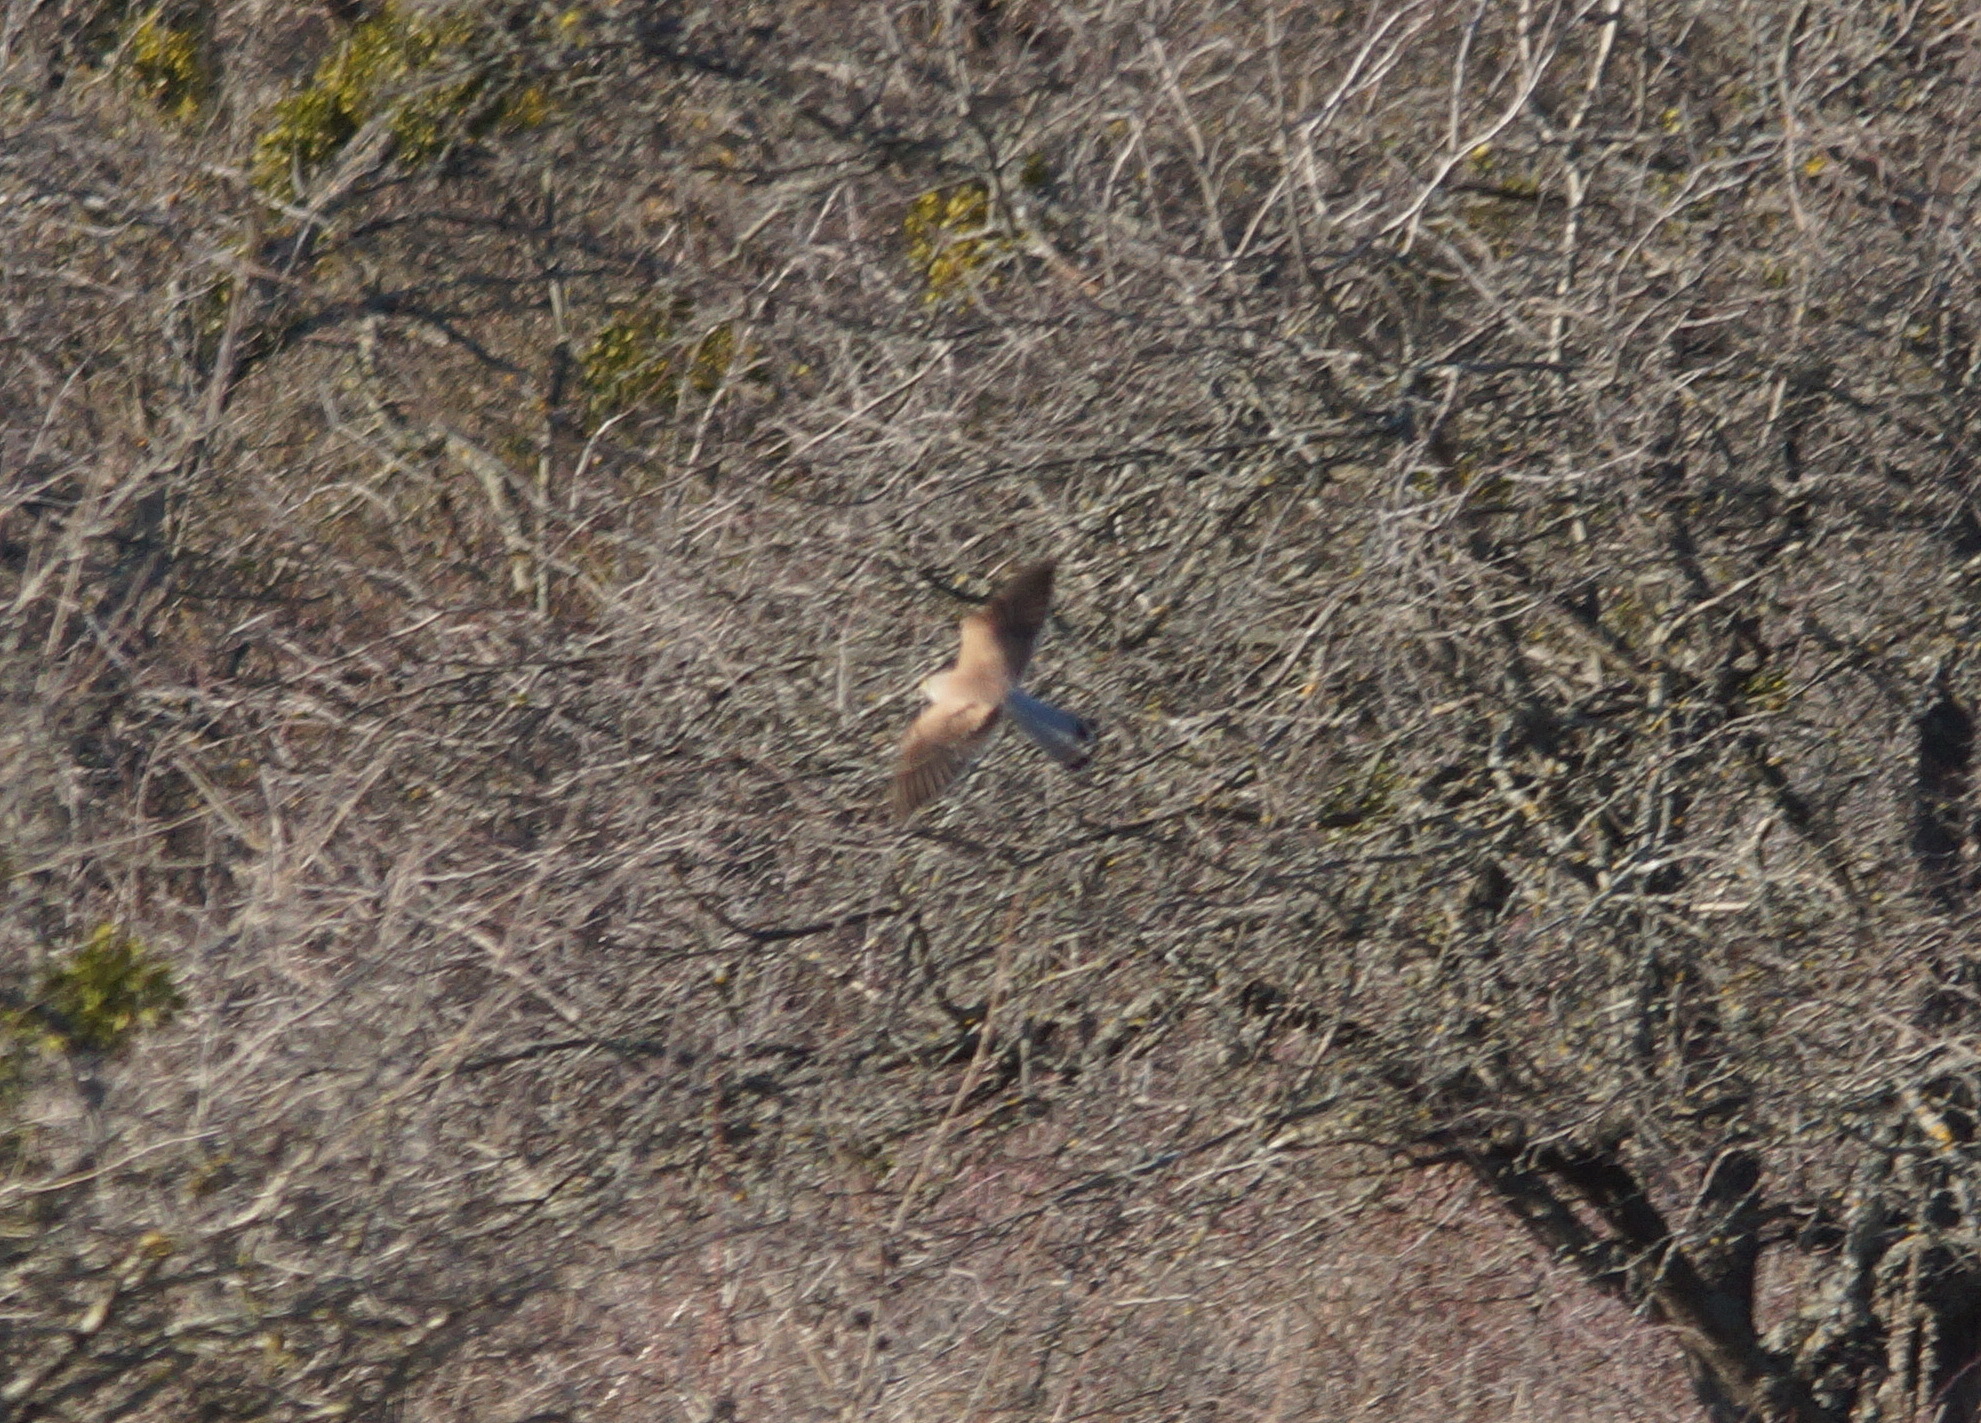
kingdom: Animalia
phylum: Chordata
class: Aves
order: Falconiformes
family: Falconidae
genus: Falco
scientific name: Falco tinnunculus
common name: Common kestrel
